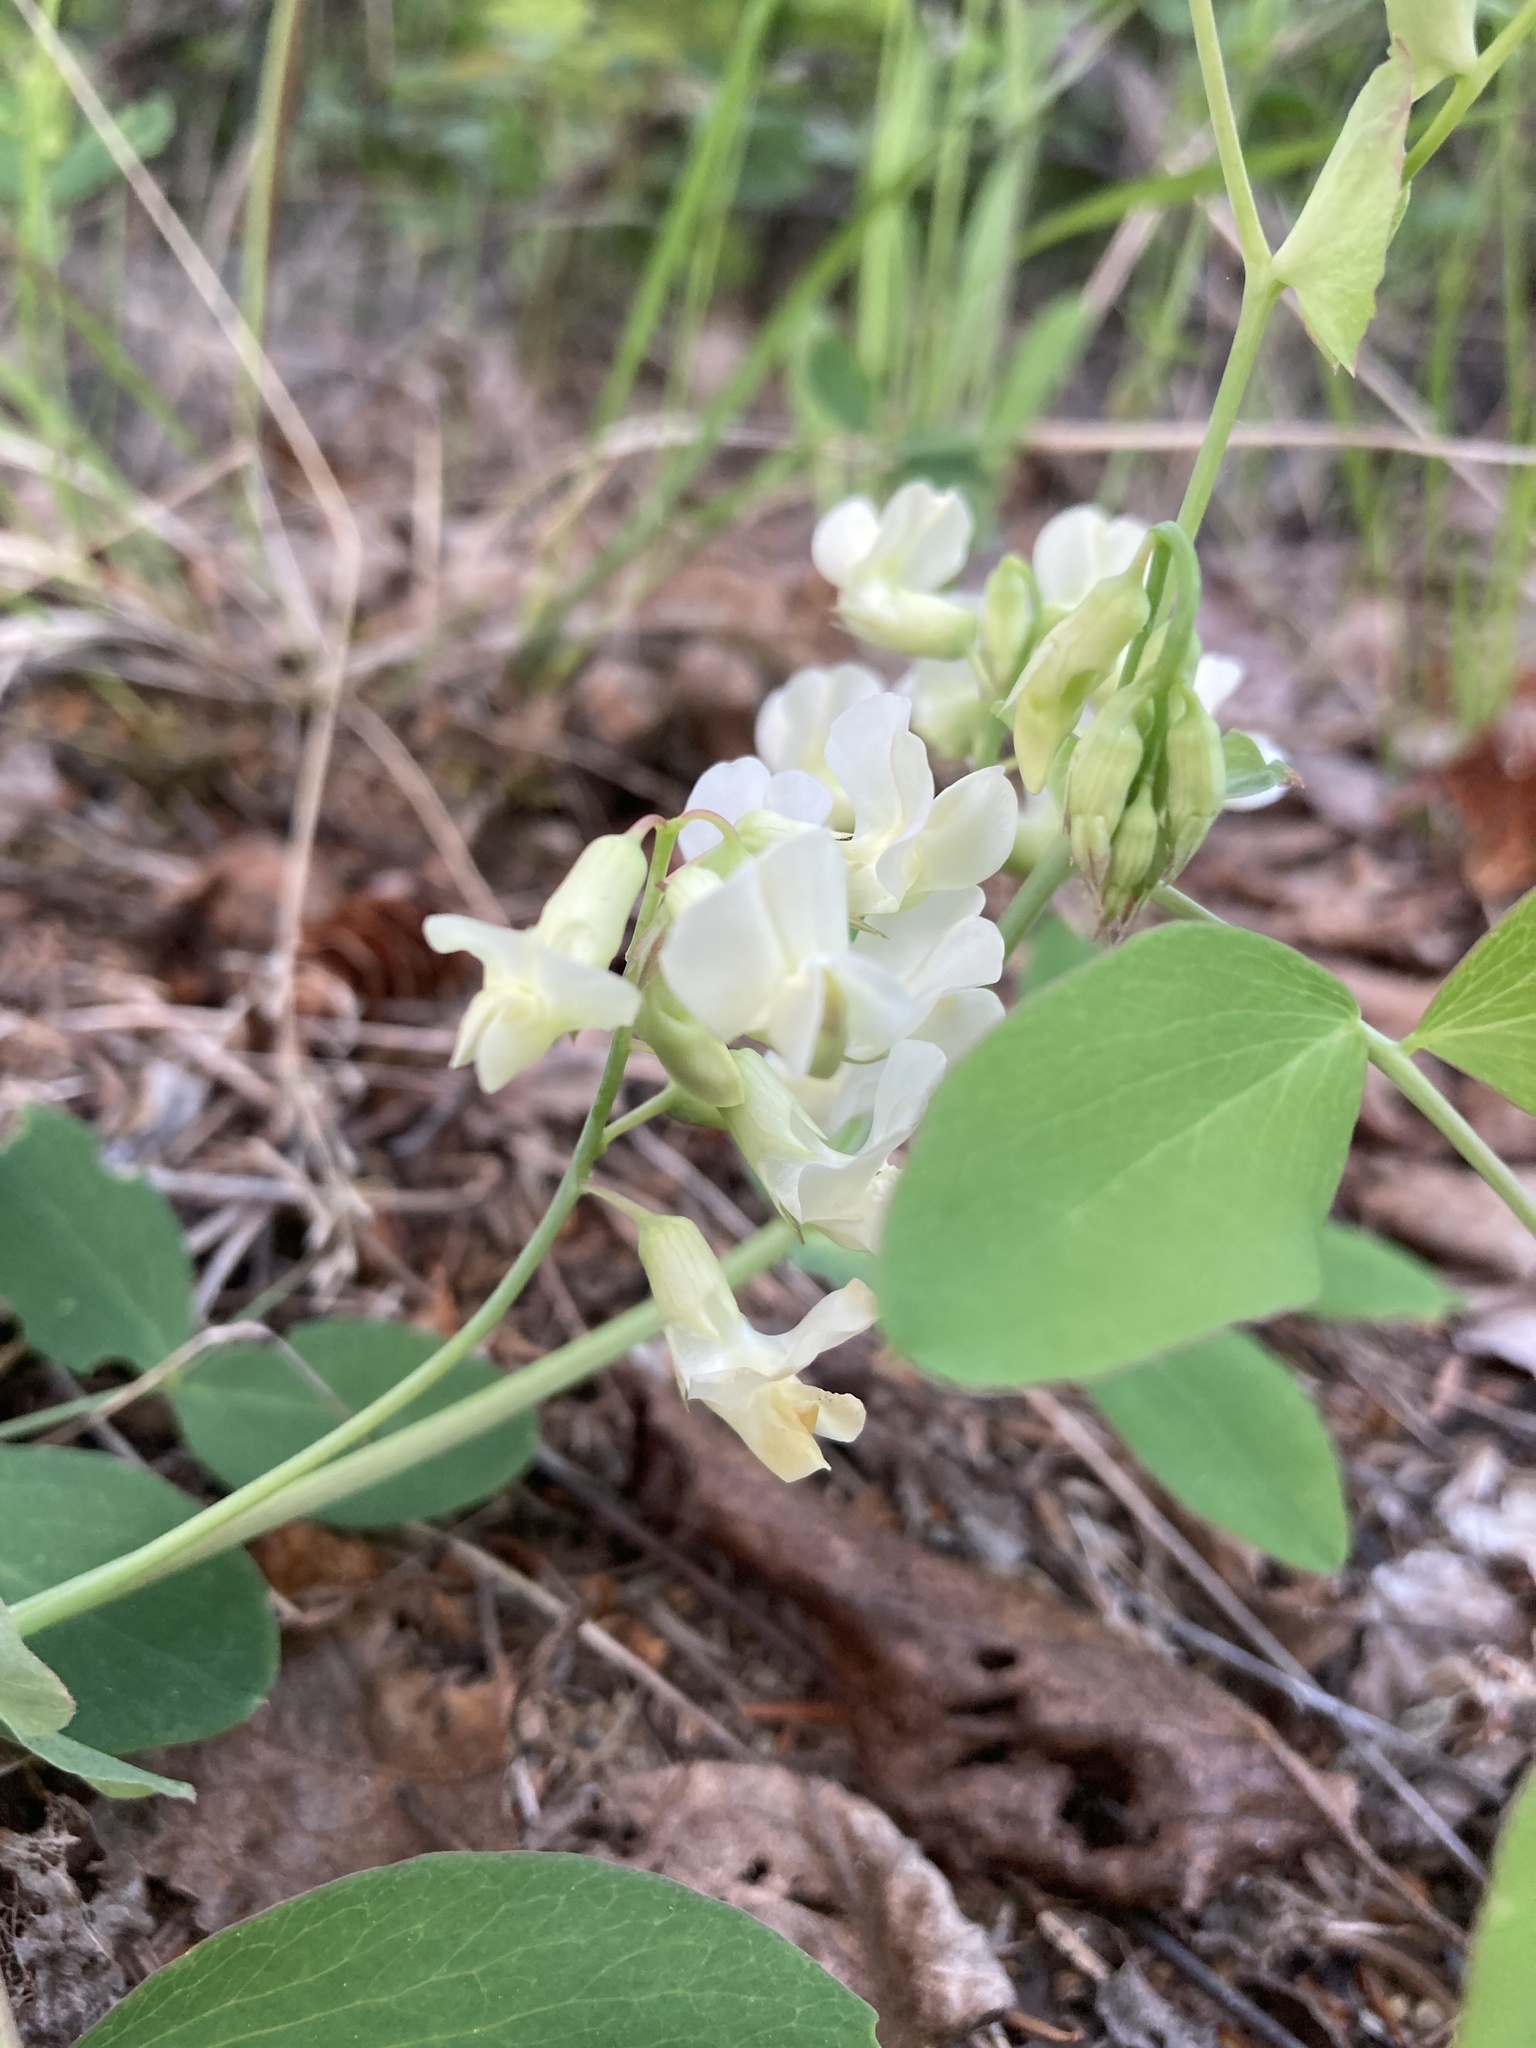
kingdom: Plantae
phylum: Tracheophyta
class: Magnoliopsida
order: Fabales
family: Fabaceae
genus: Lathyrus
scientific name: Lathyrus ochroleucus
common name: Pale vetchling
